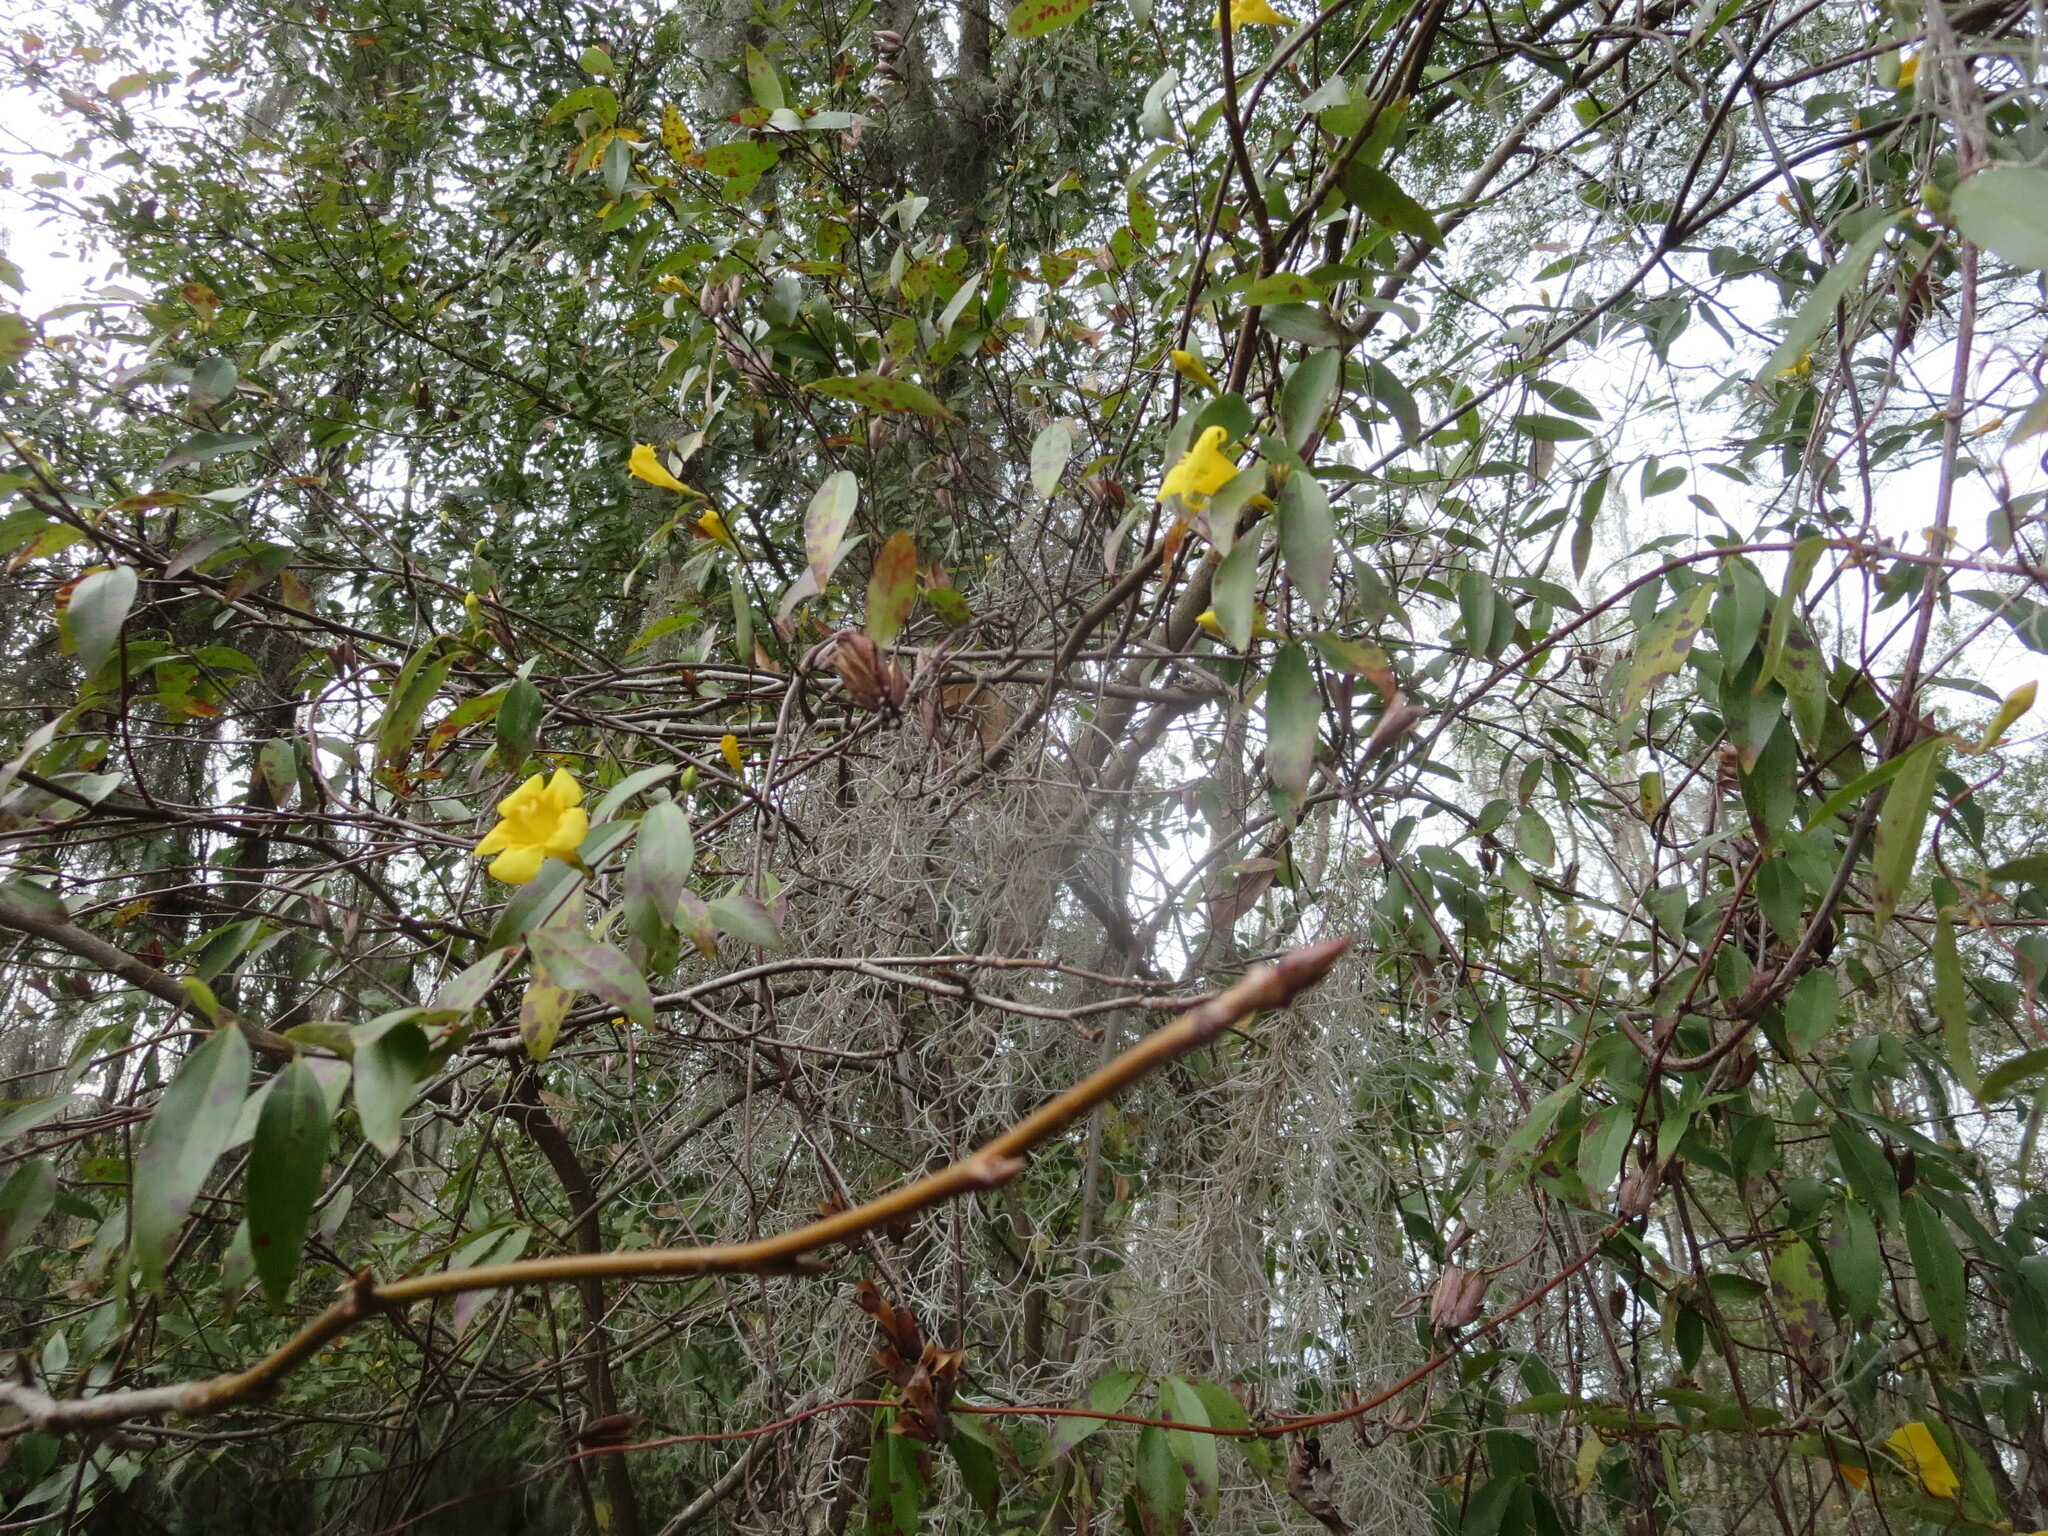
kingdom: Plantae
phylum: Tracheophyta
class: Magnoliopsida
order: Gentianales
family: Gelsemiaceae
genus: Gelsemium
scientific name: Gelsemium sempervirens
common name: Carolina-jasmine
